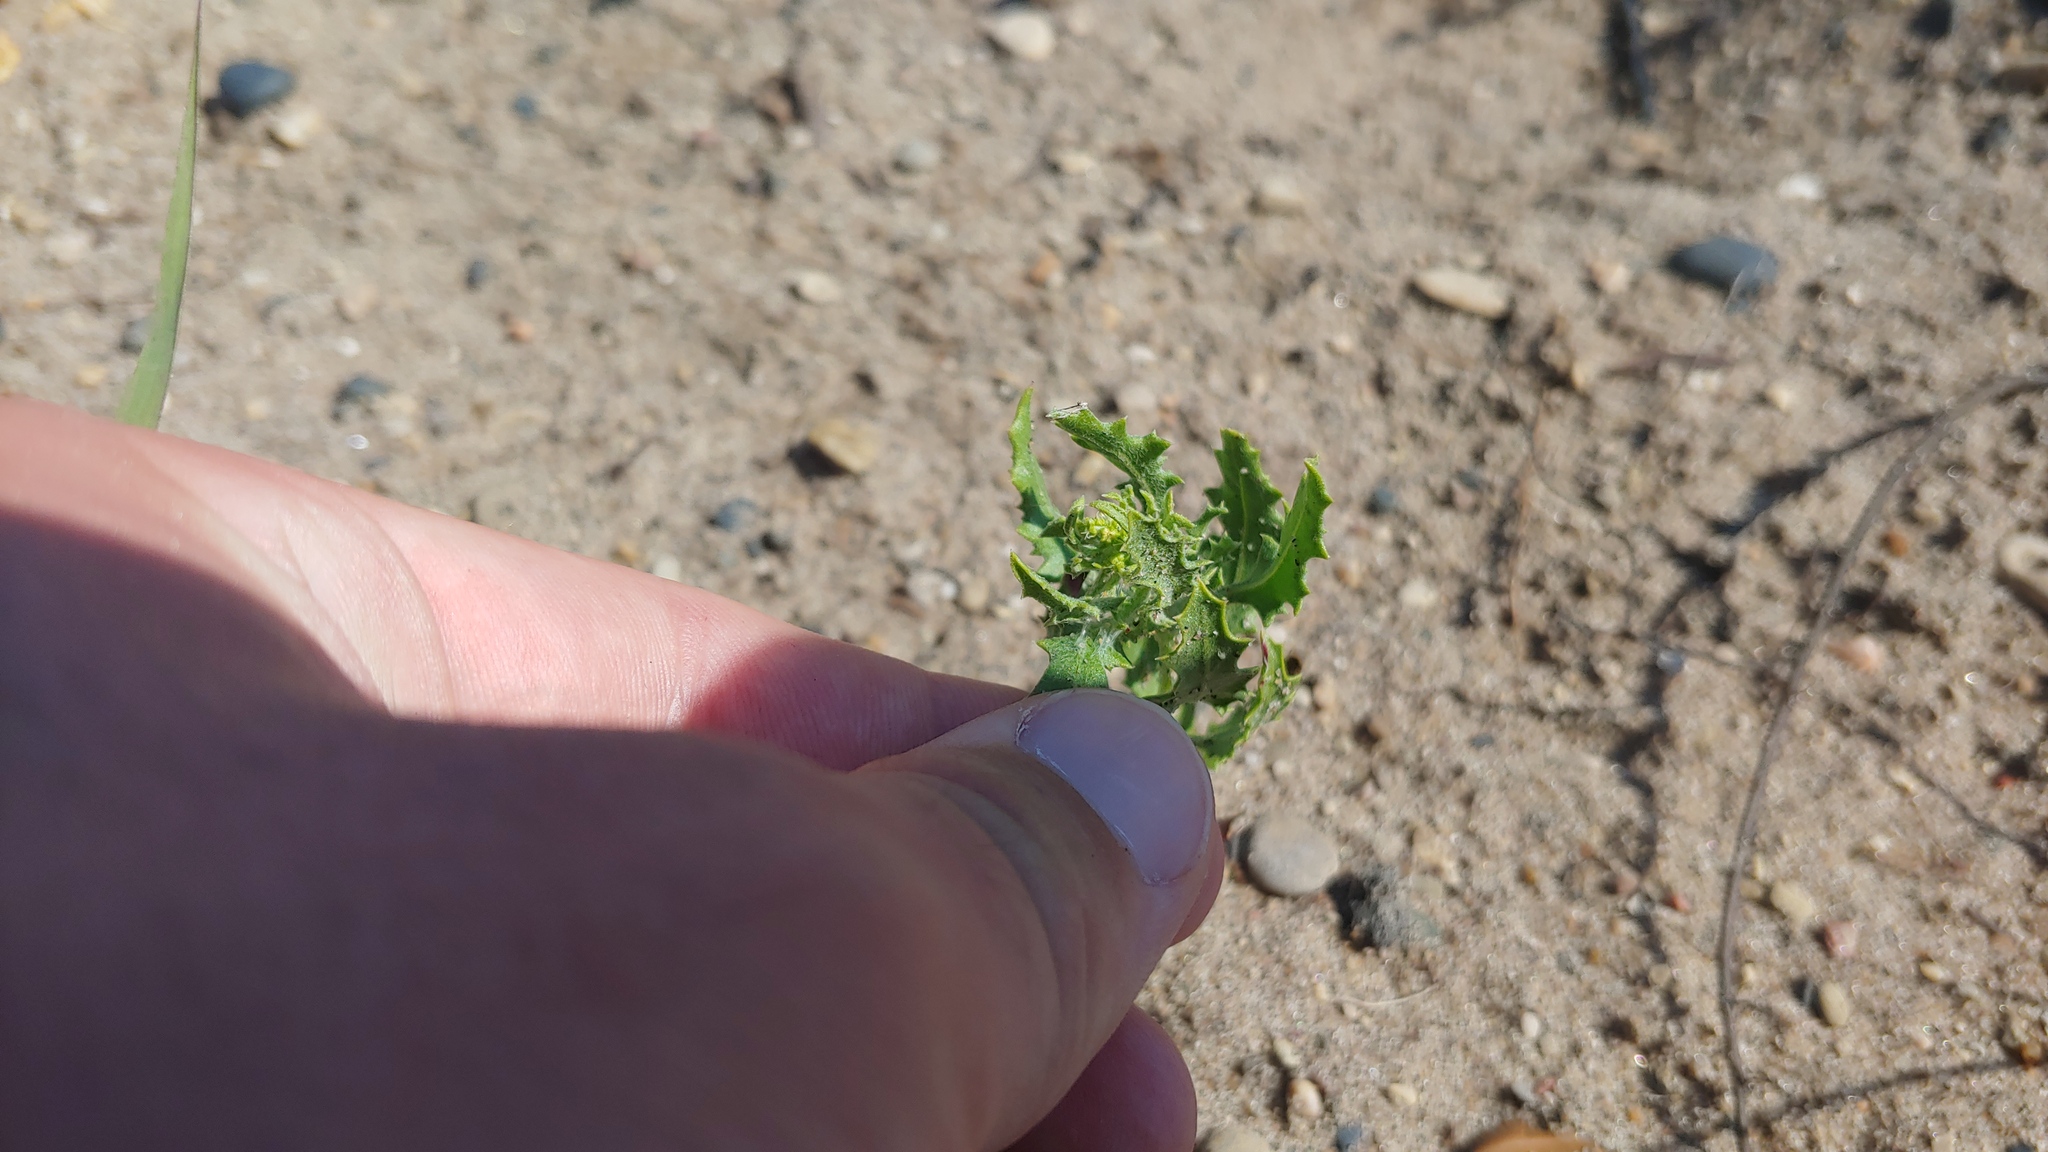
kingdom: Plantae
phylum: Tracheophyta
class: Magnoliopsida
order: Caryophyllales
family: Amaranthaceae
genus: Dysphania
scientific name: Dysphania atriplicifolia
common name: Plains tumbleweed
